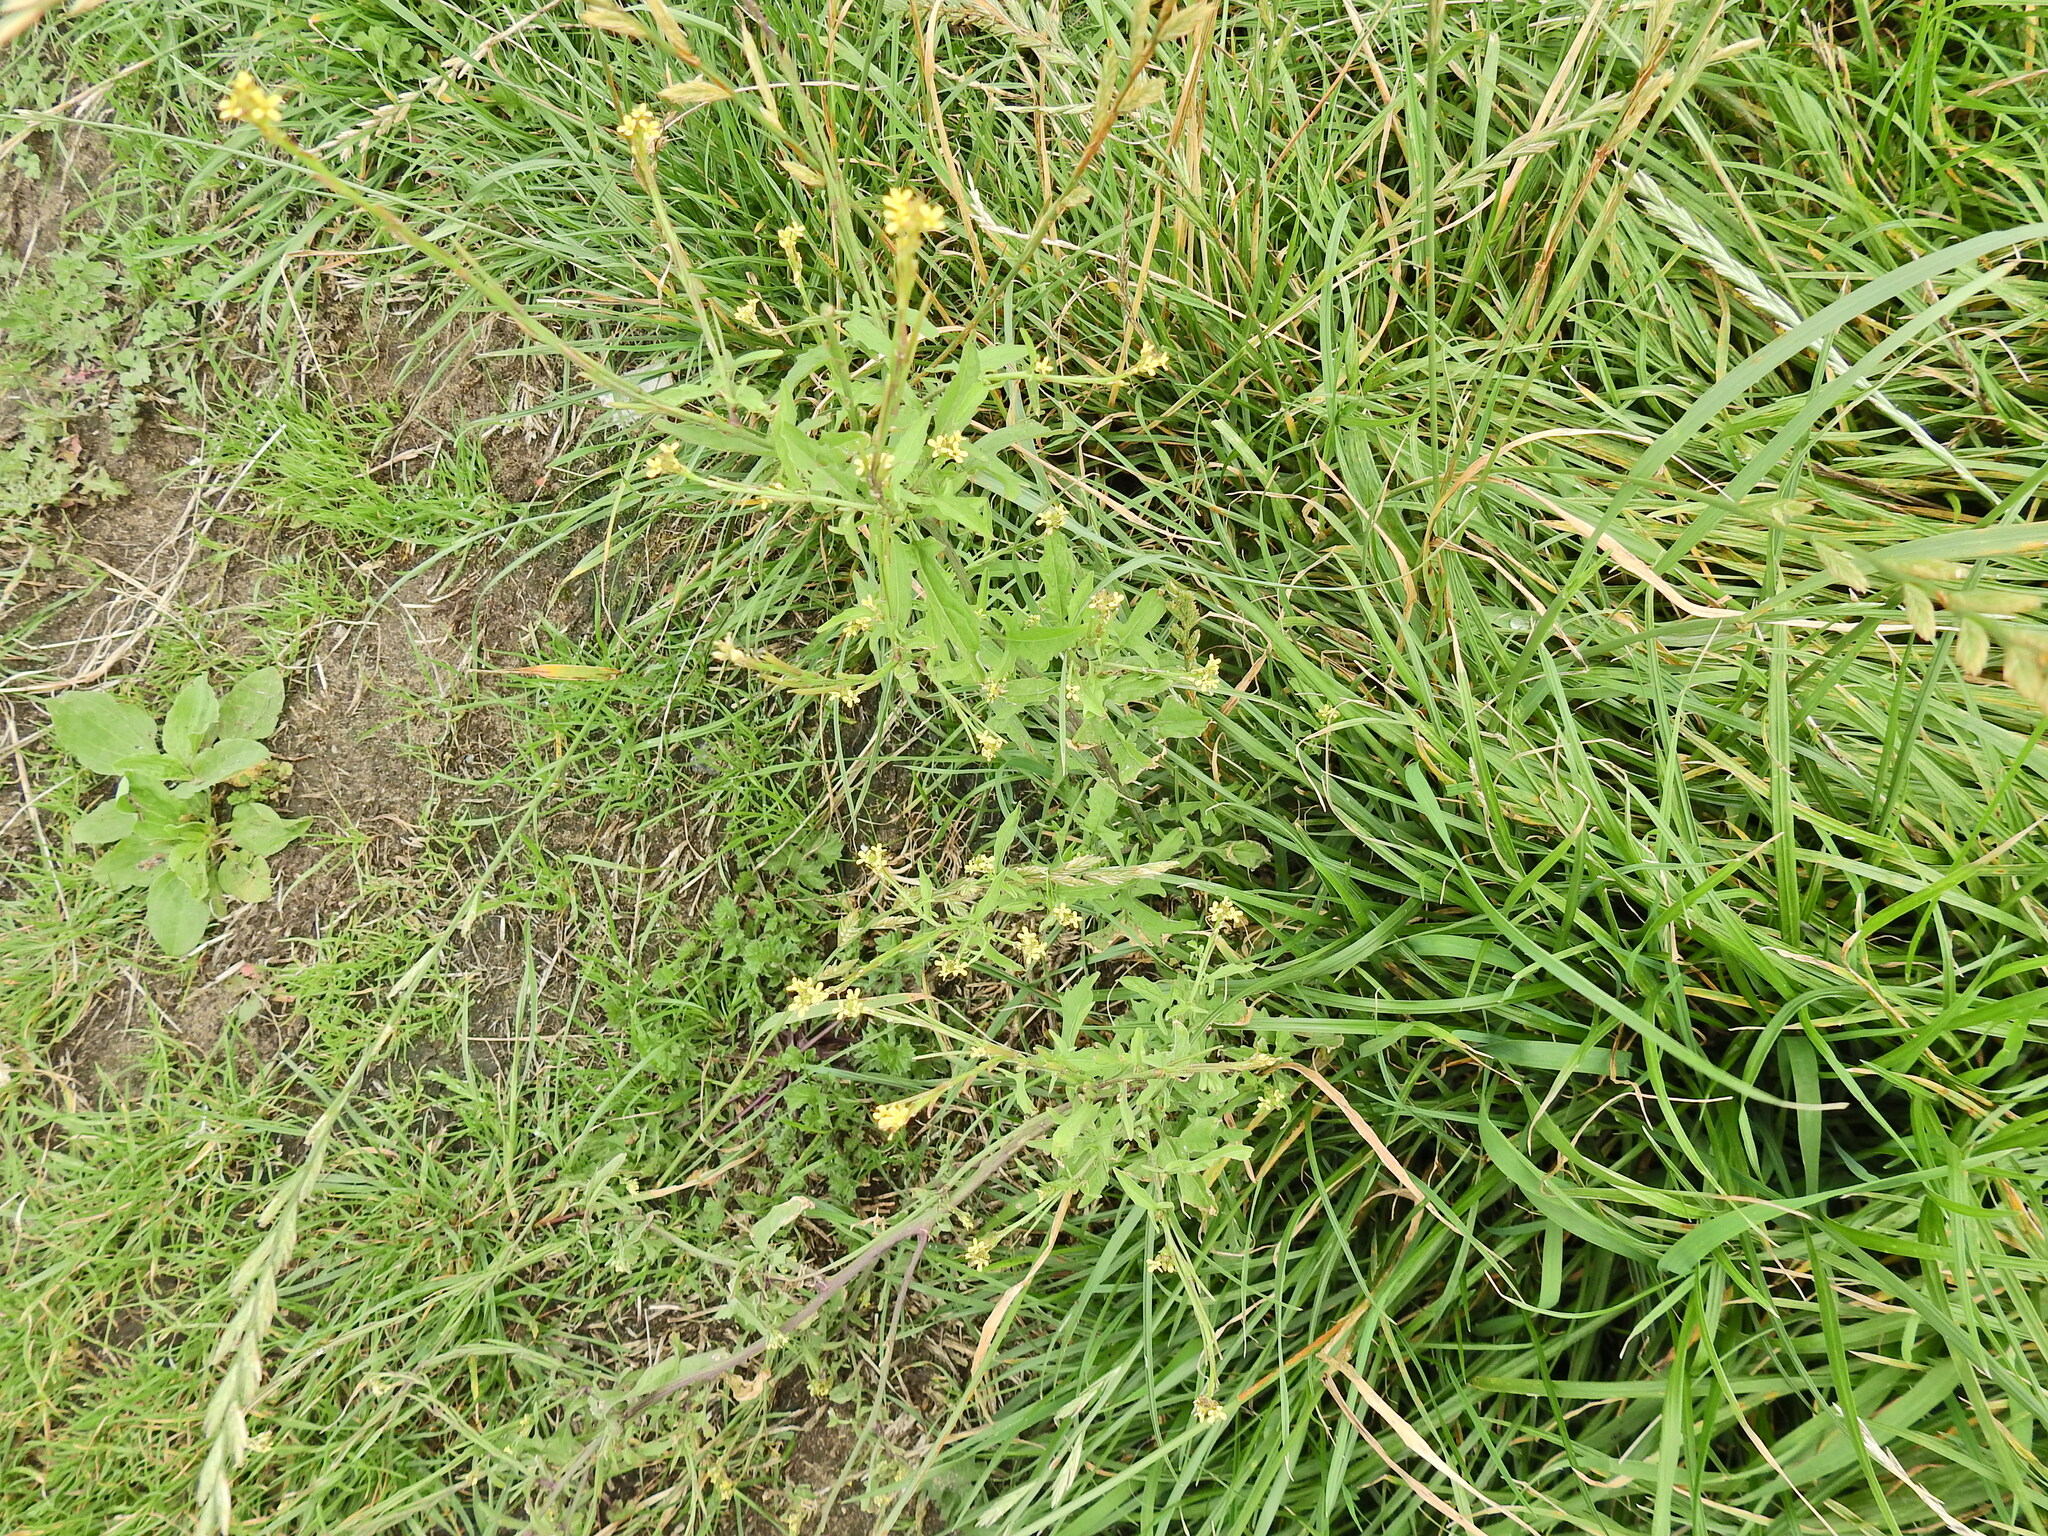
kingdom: Plantae
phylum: Tracheophyta
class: Magnoliopsida
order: Brassicales
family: Brassicaceae
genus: Sisymbrium
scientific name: Sisymbrium officinale
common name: Hedge mustard
